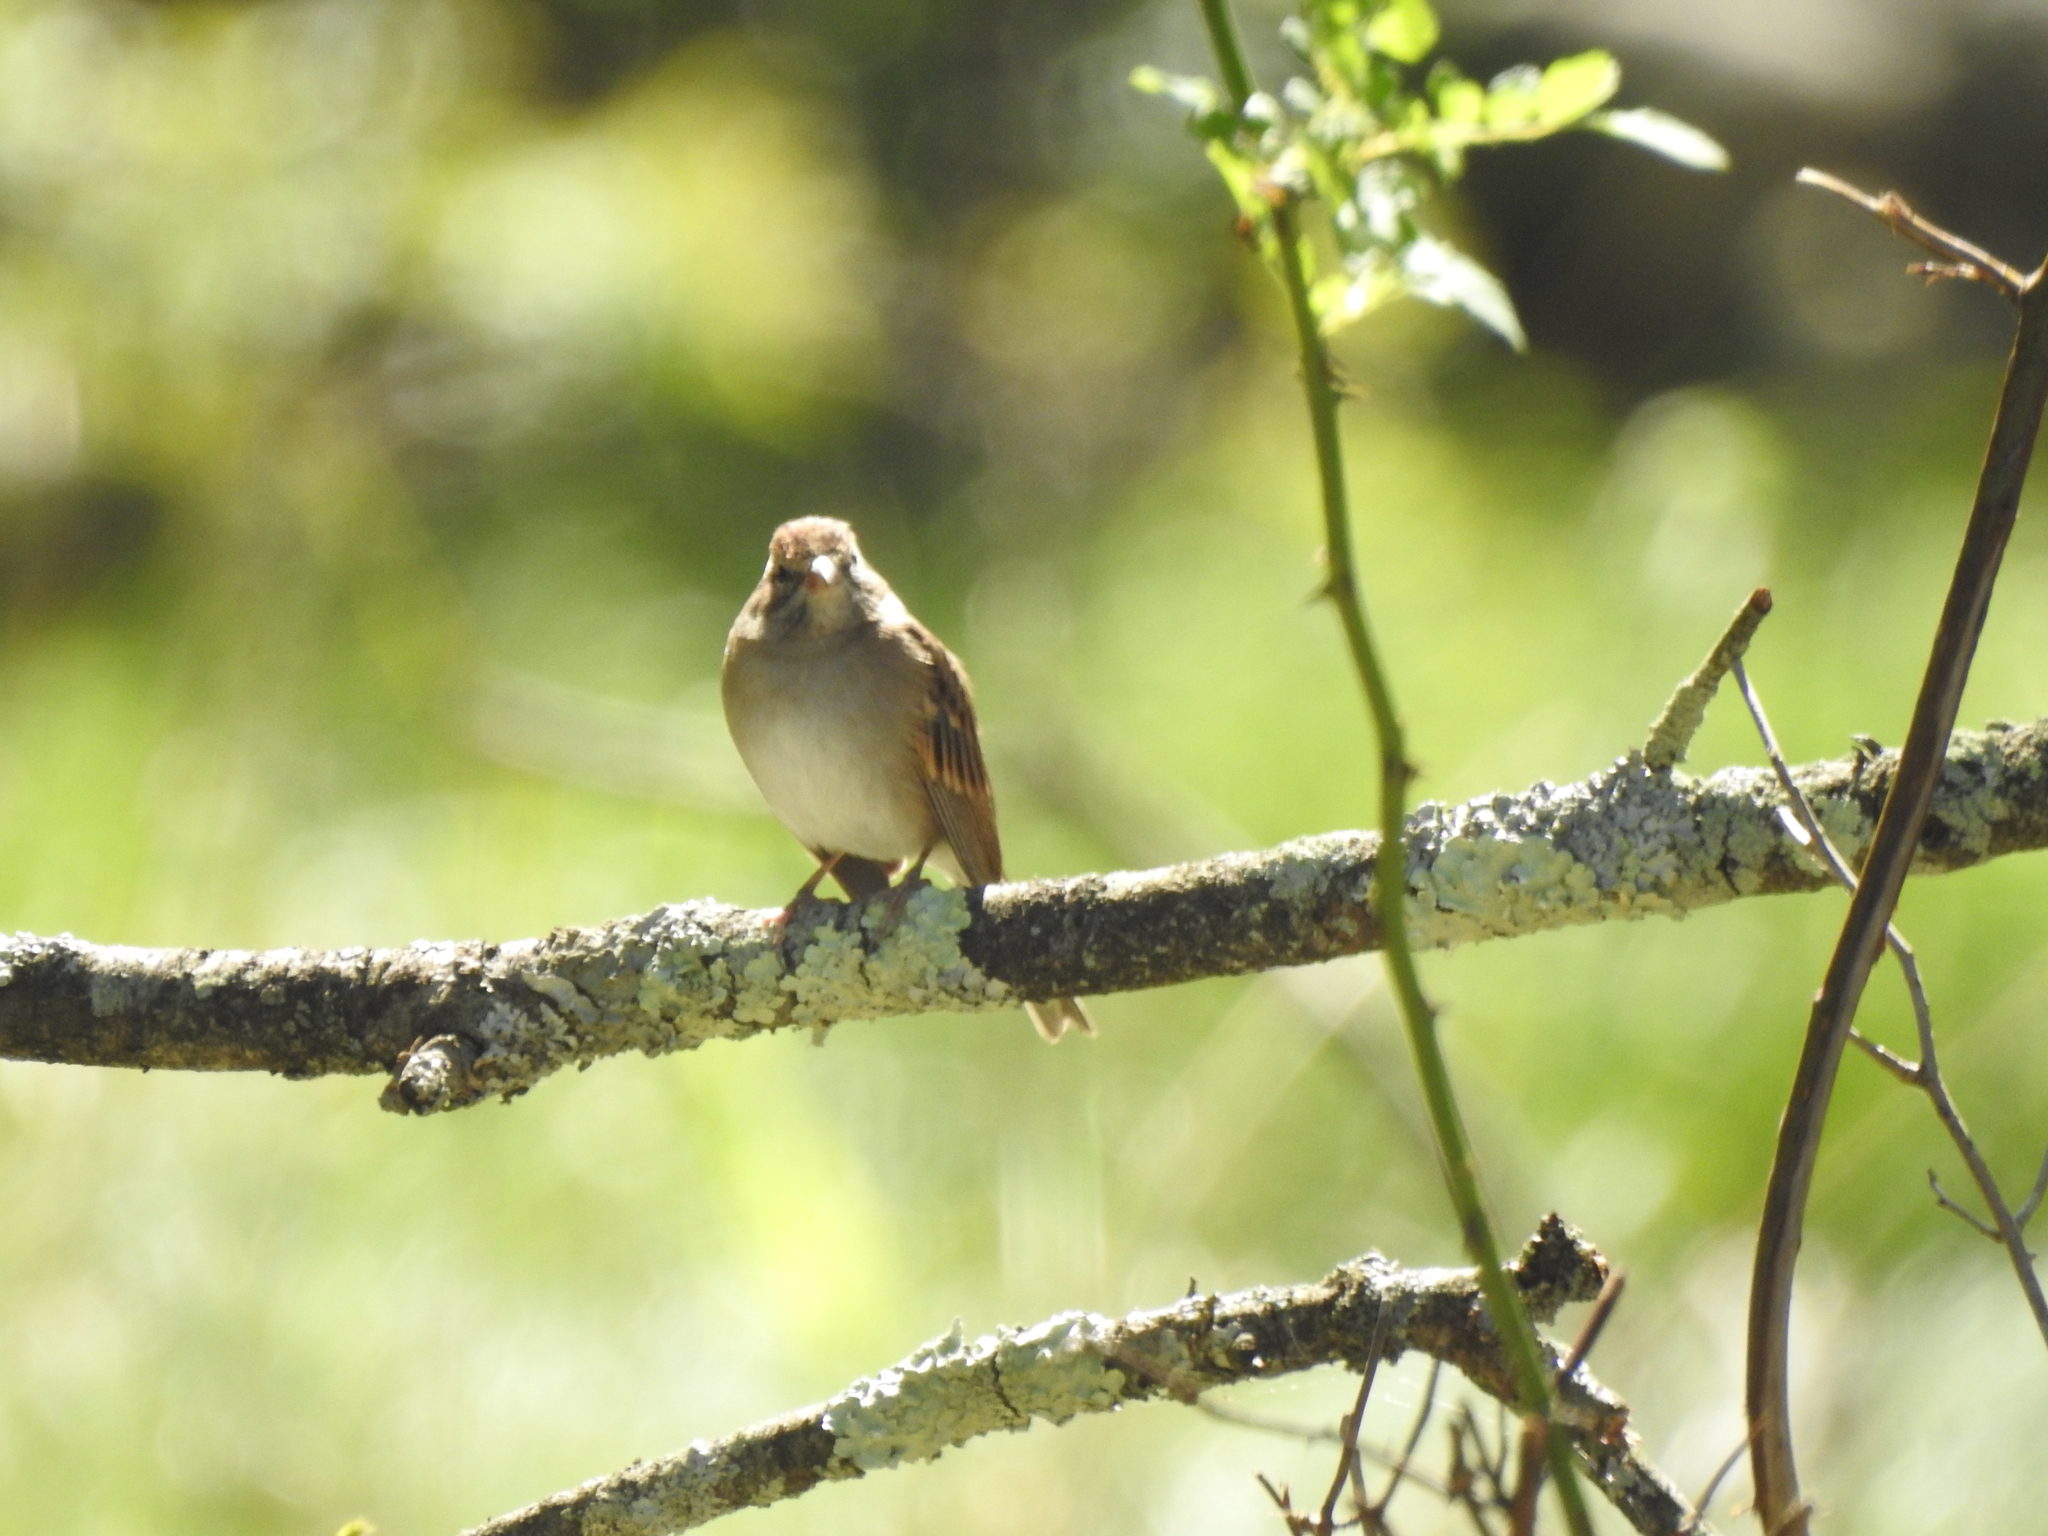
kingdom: Animalia
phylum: Chordata
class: Aves
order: Passeriformes
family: Passerellidae
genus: Spizella
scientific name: Spizella passerina
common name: Chipping sparrow
